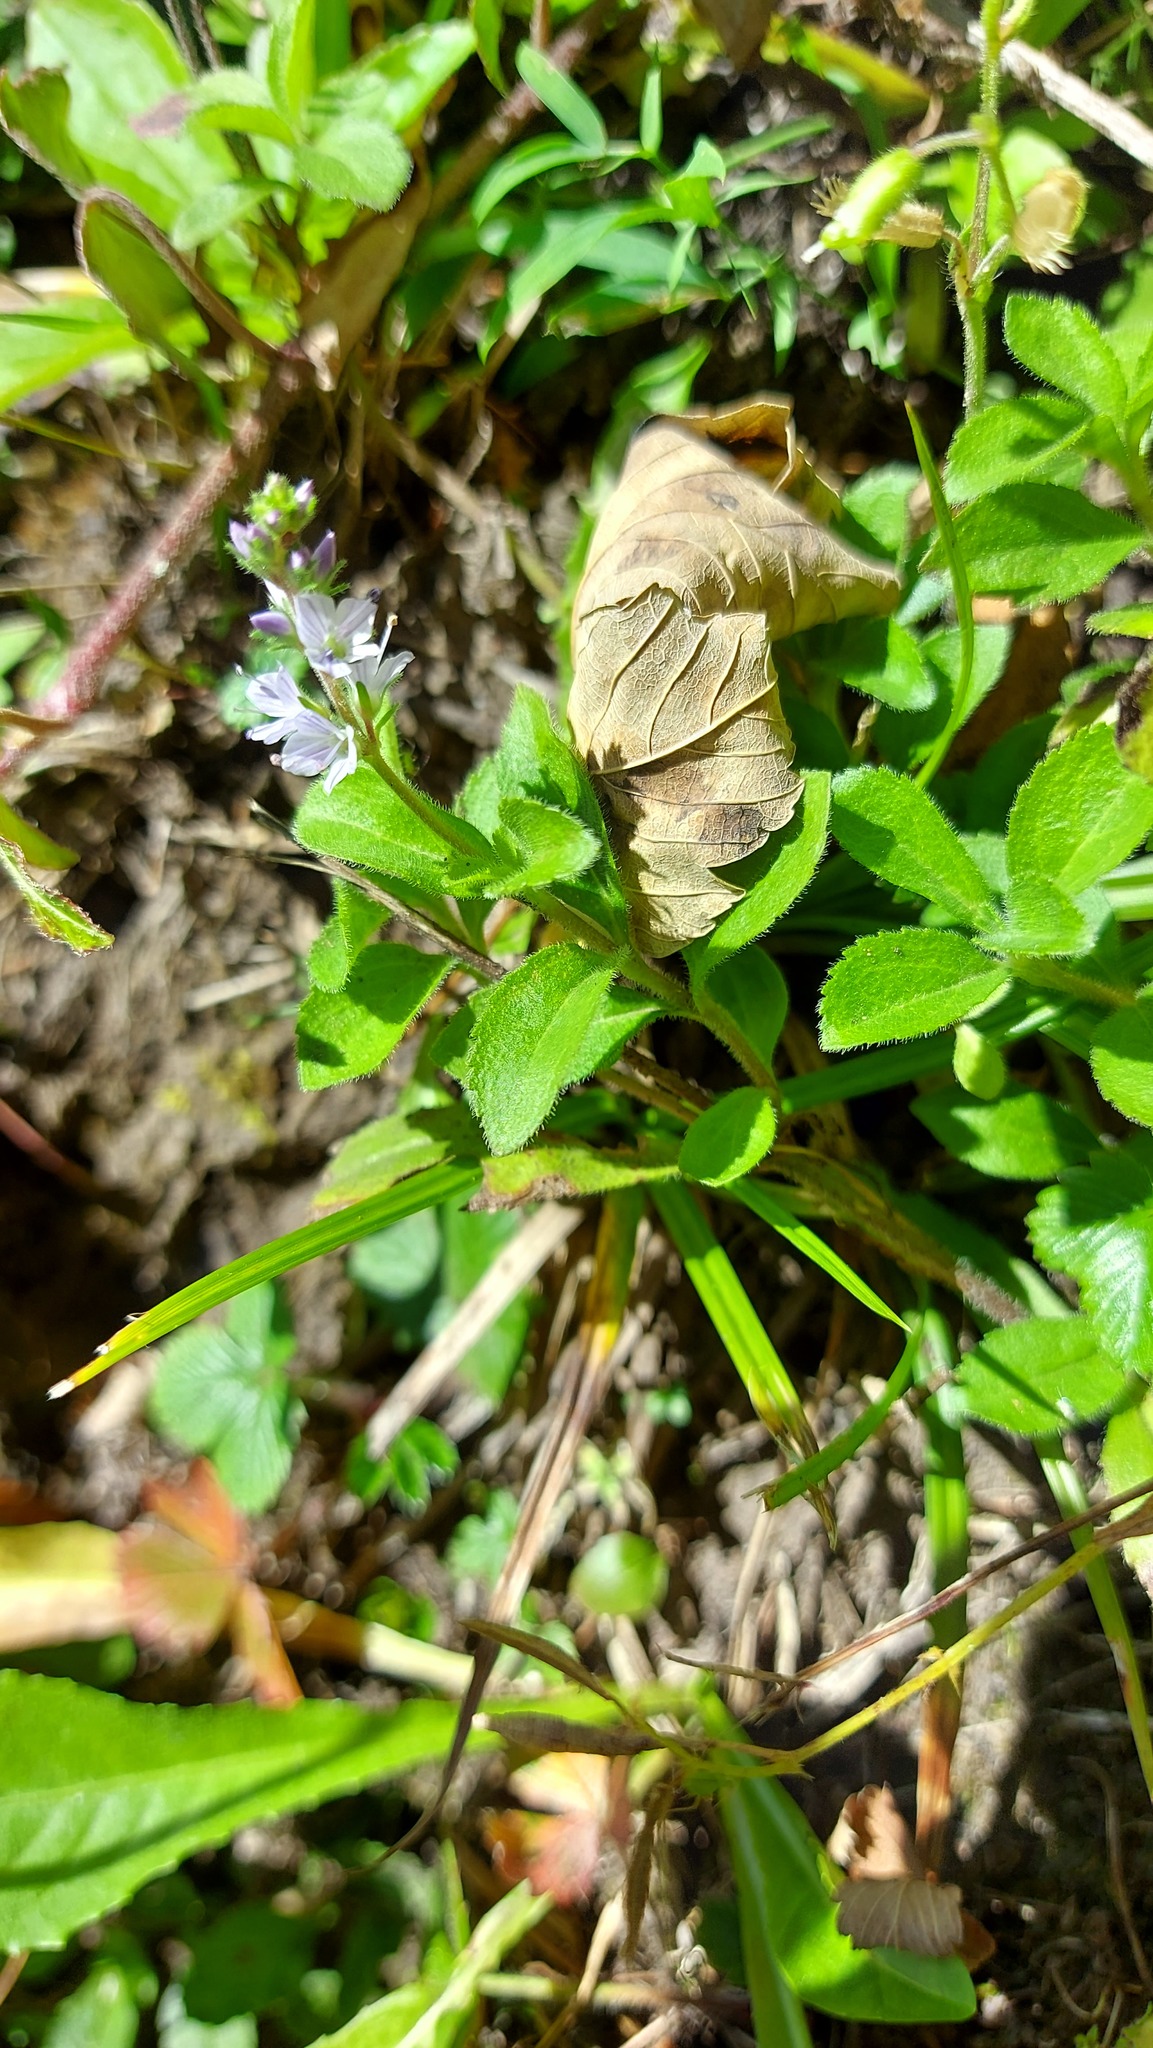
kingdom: Plantae
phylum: Tracheophyta
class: Magnoliopsida
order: Lamiales
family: Plantaginaceae
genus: Veronica
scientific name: Veronica officinalis
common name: Common speedwell
